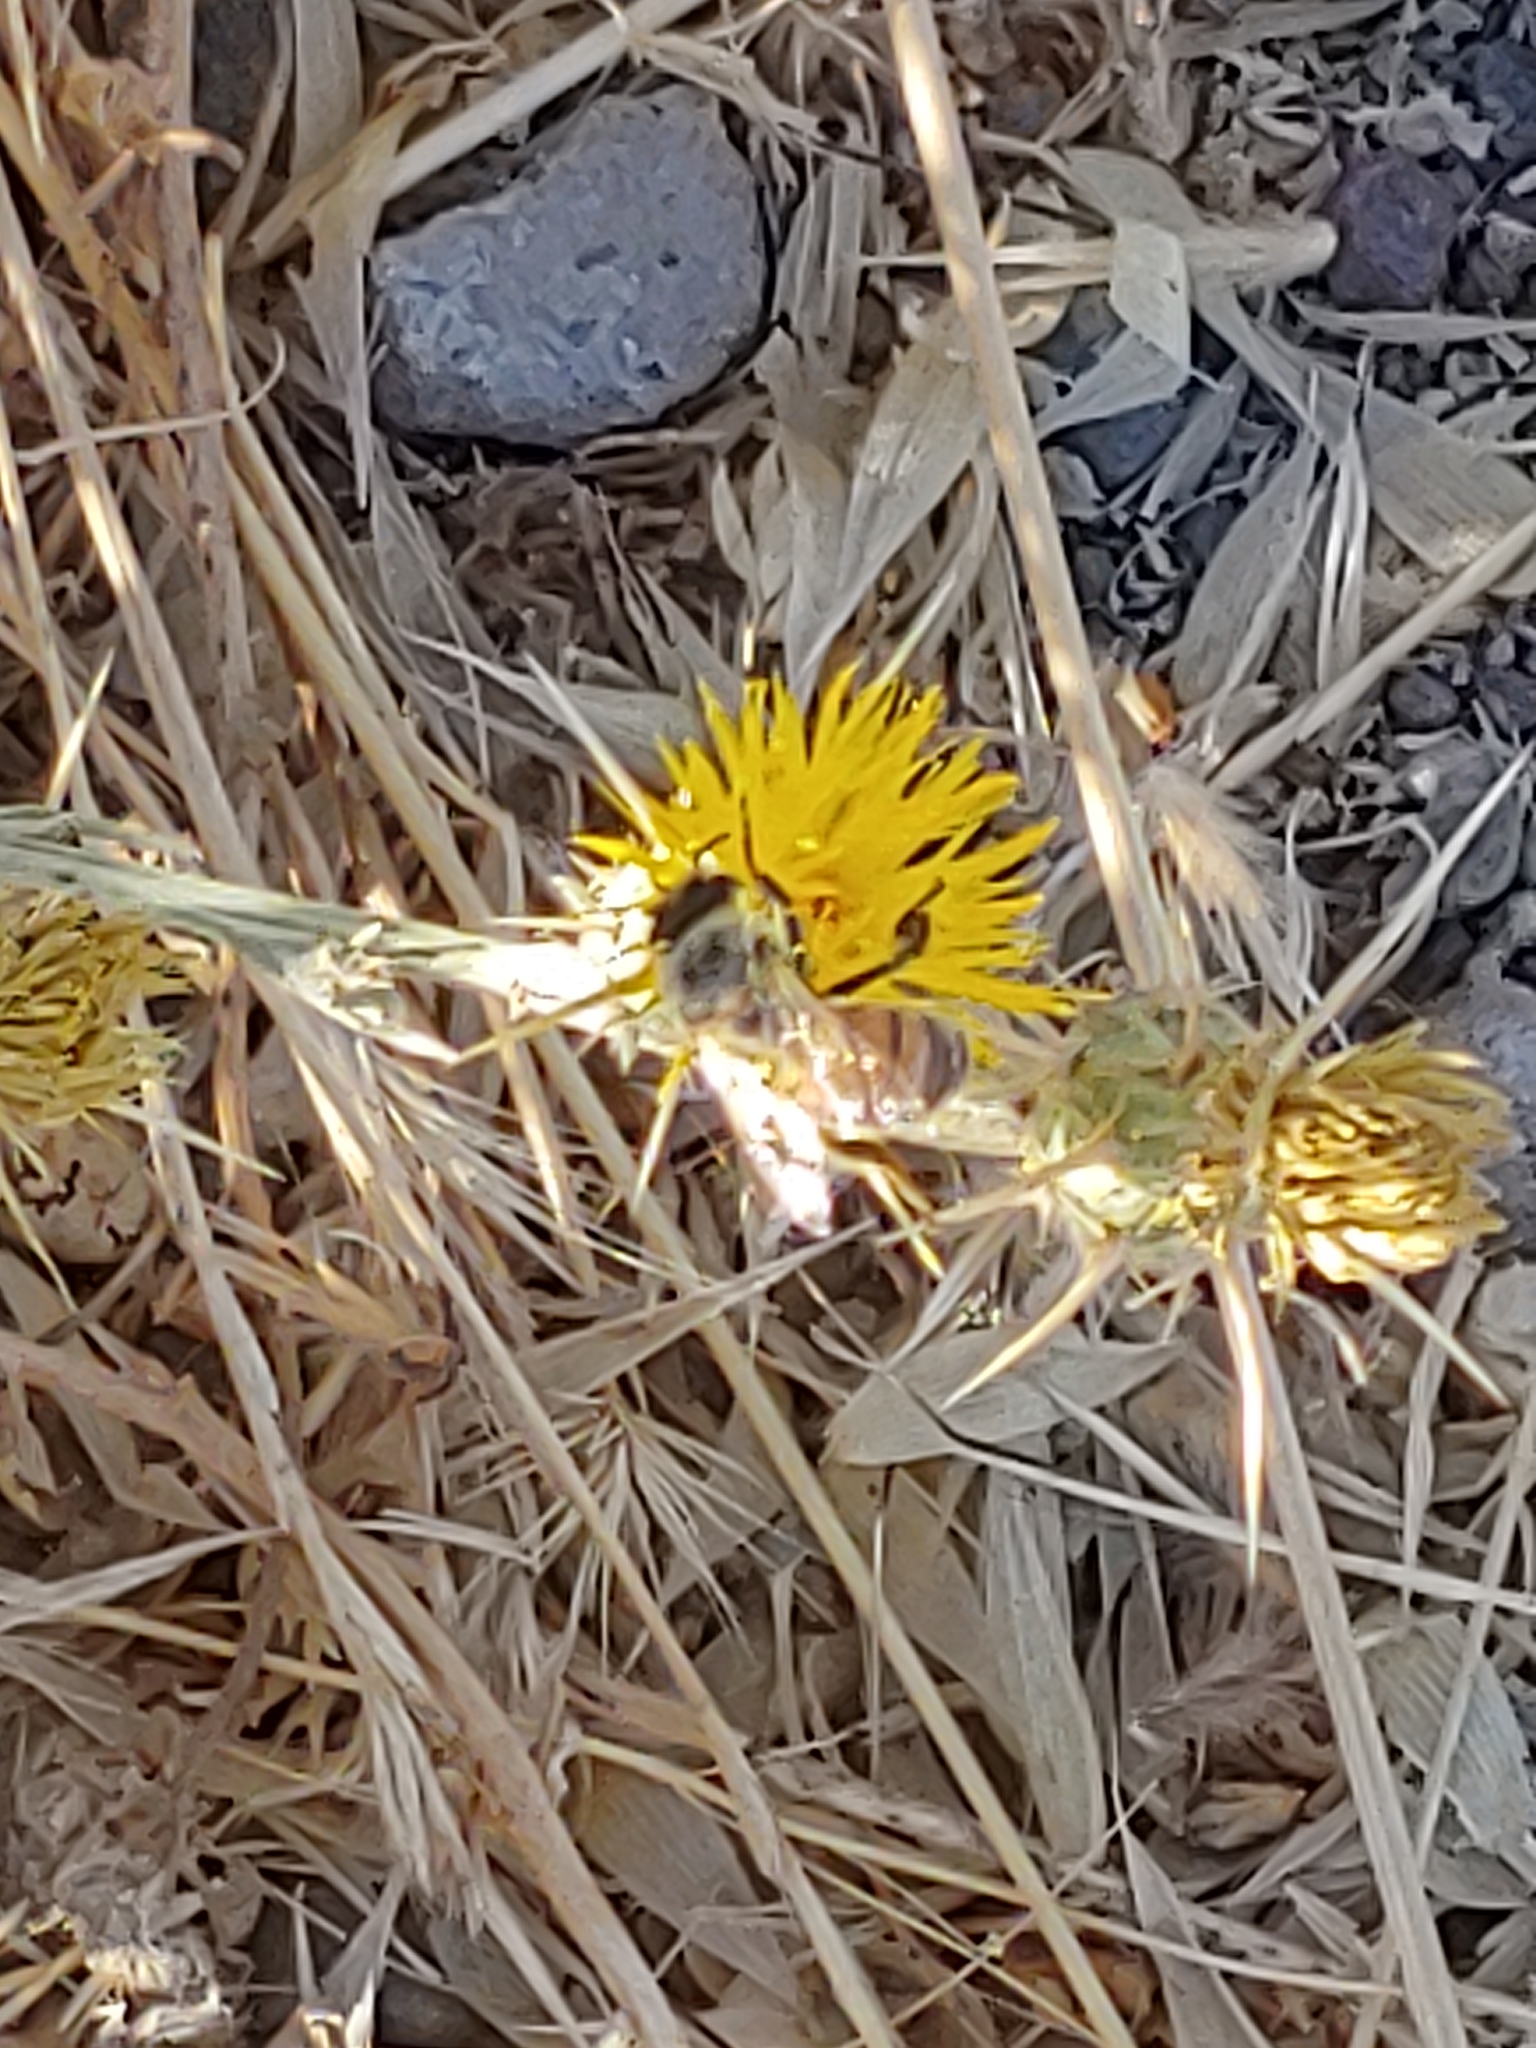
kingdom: Animalia
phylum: Arthropoda
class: Insecta
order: Hymenoptera
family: Apidae
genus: Apis
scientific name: Apis mellifera
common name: Honey bee
